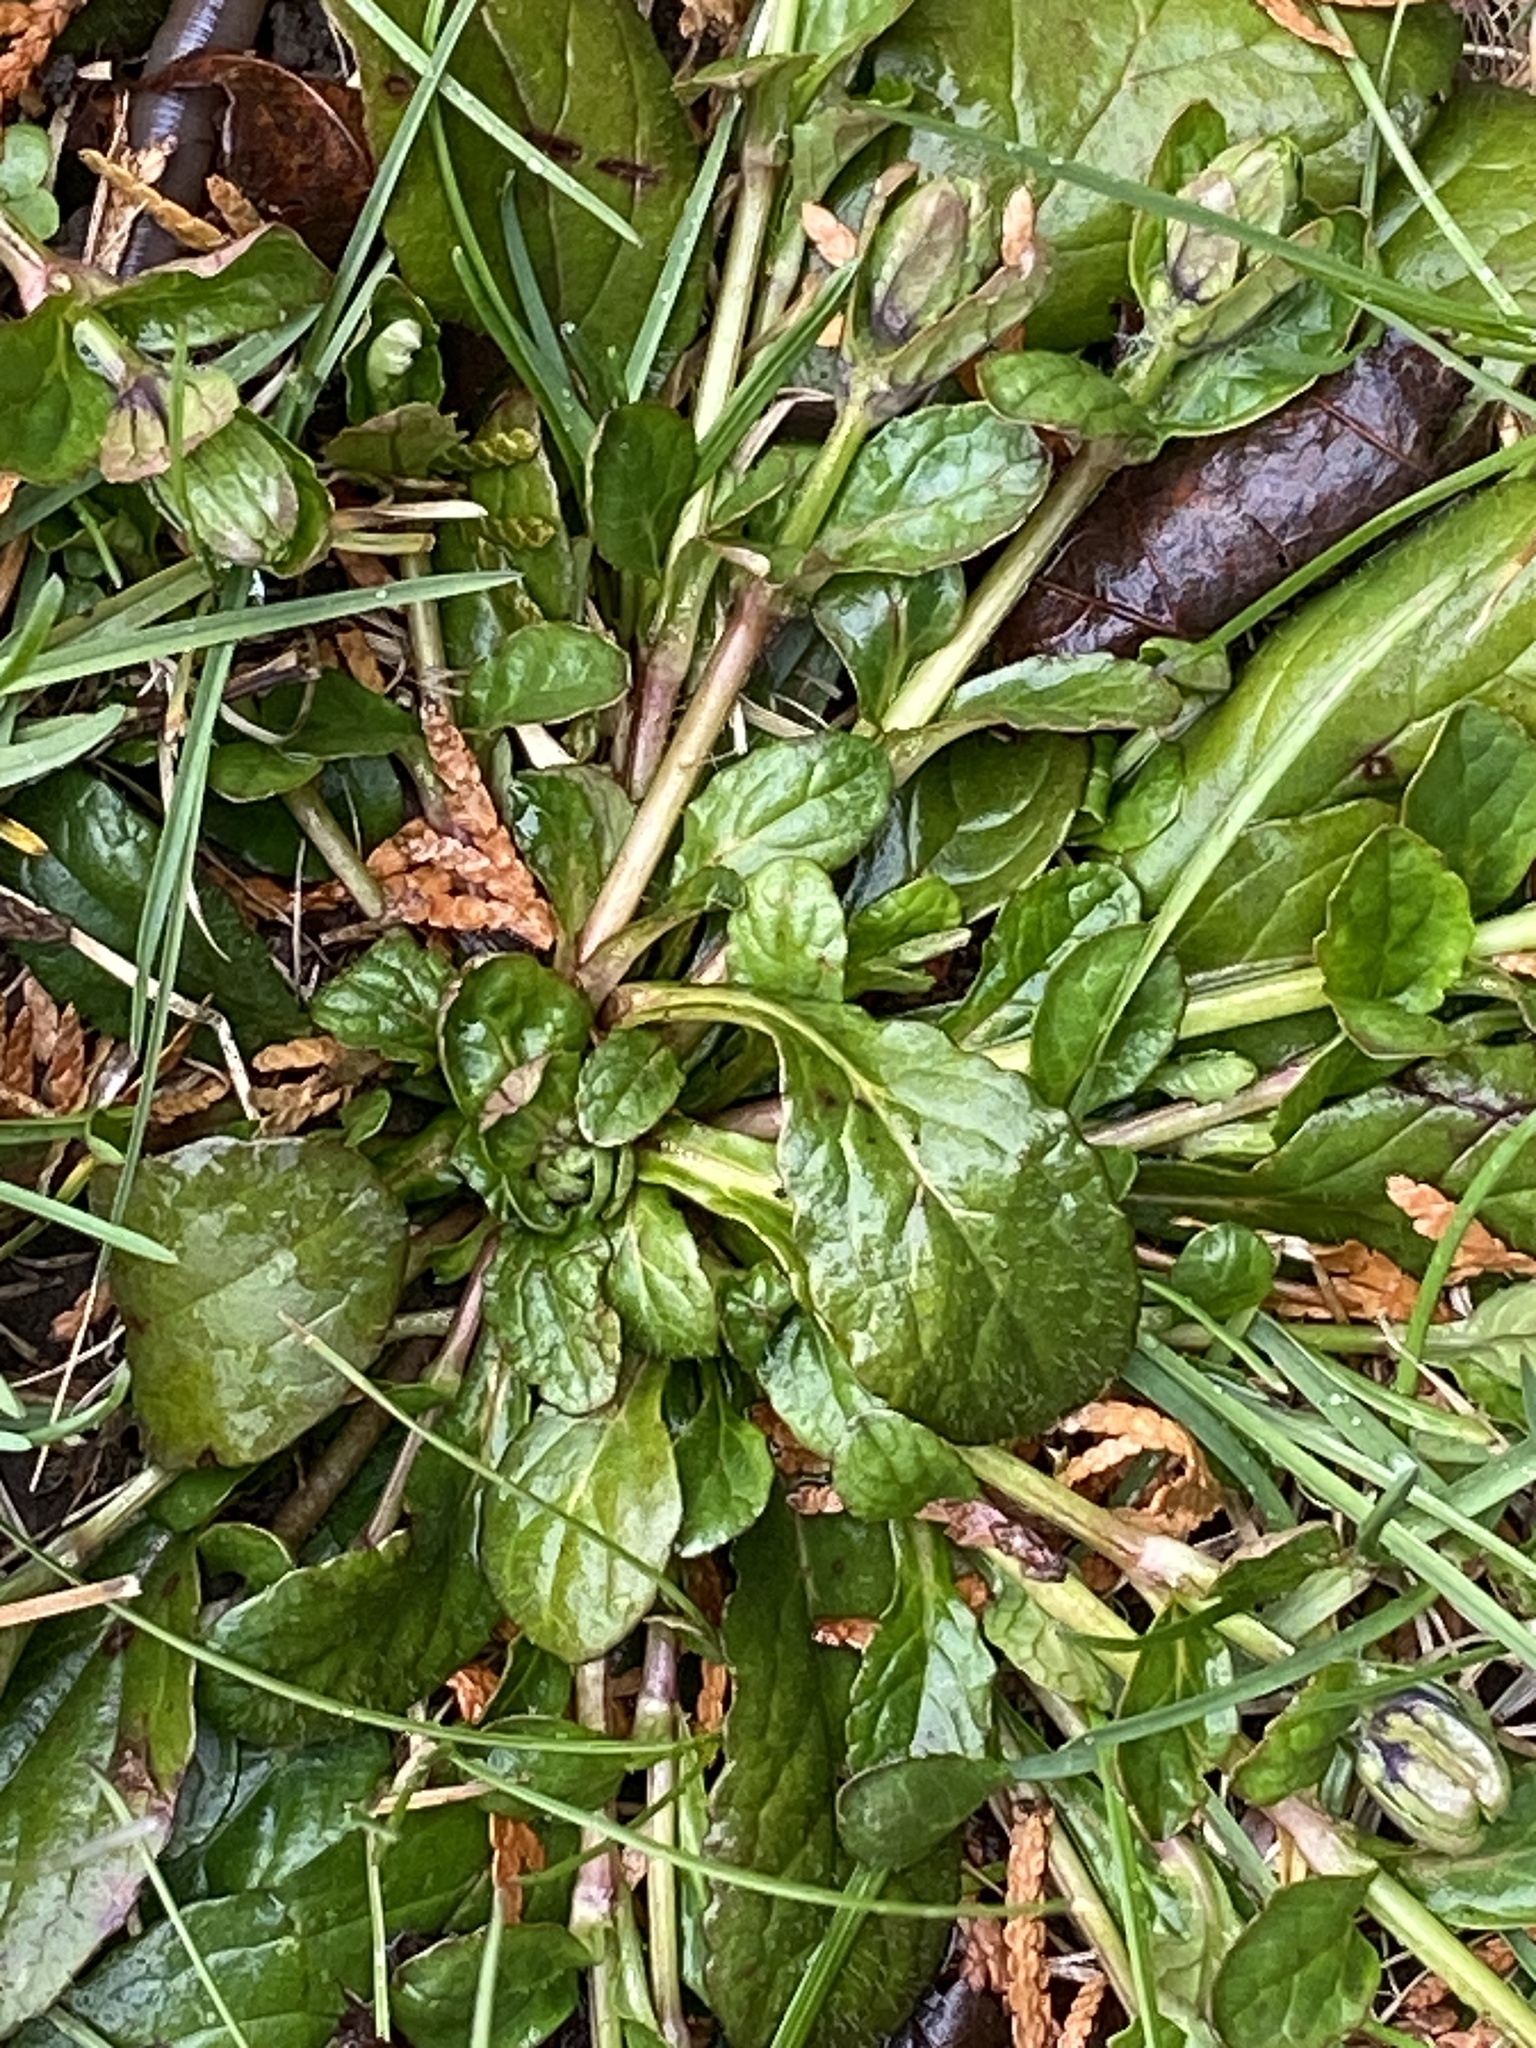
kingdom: Plantae
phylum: Tracheophyta
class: Magnoliopsida
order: Lamiales
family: Lamiaceae
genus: Ajuga
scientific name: Ajuga reptans
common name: Bugle
